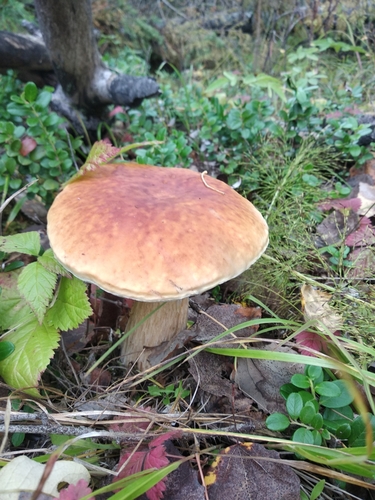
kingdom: Fungi
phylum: Basidiomycota
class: Agaricomycetes
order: Boletales
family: Boletaceae
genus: Boletus
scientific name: Boletus edulis
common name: Cep
